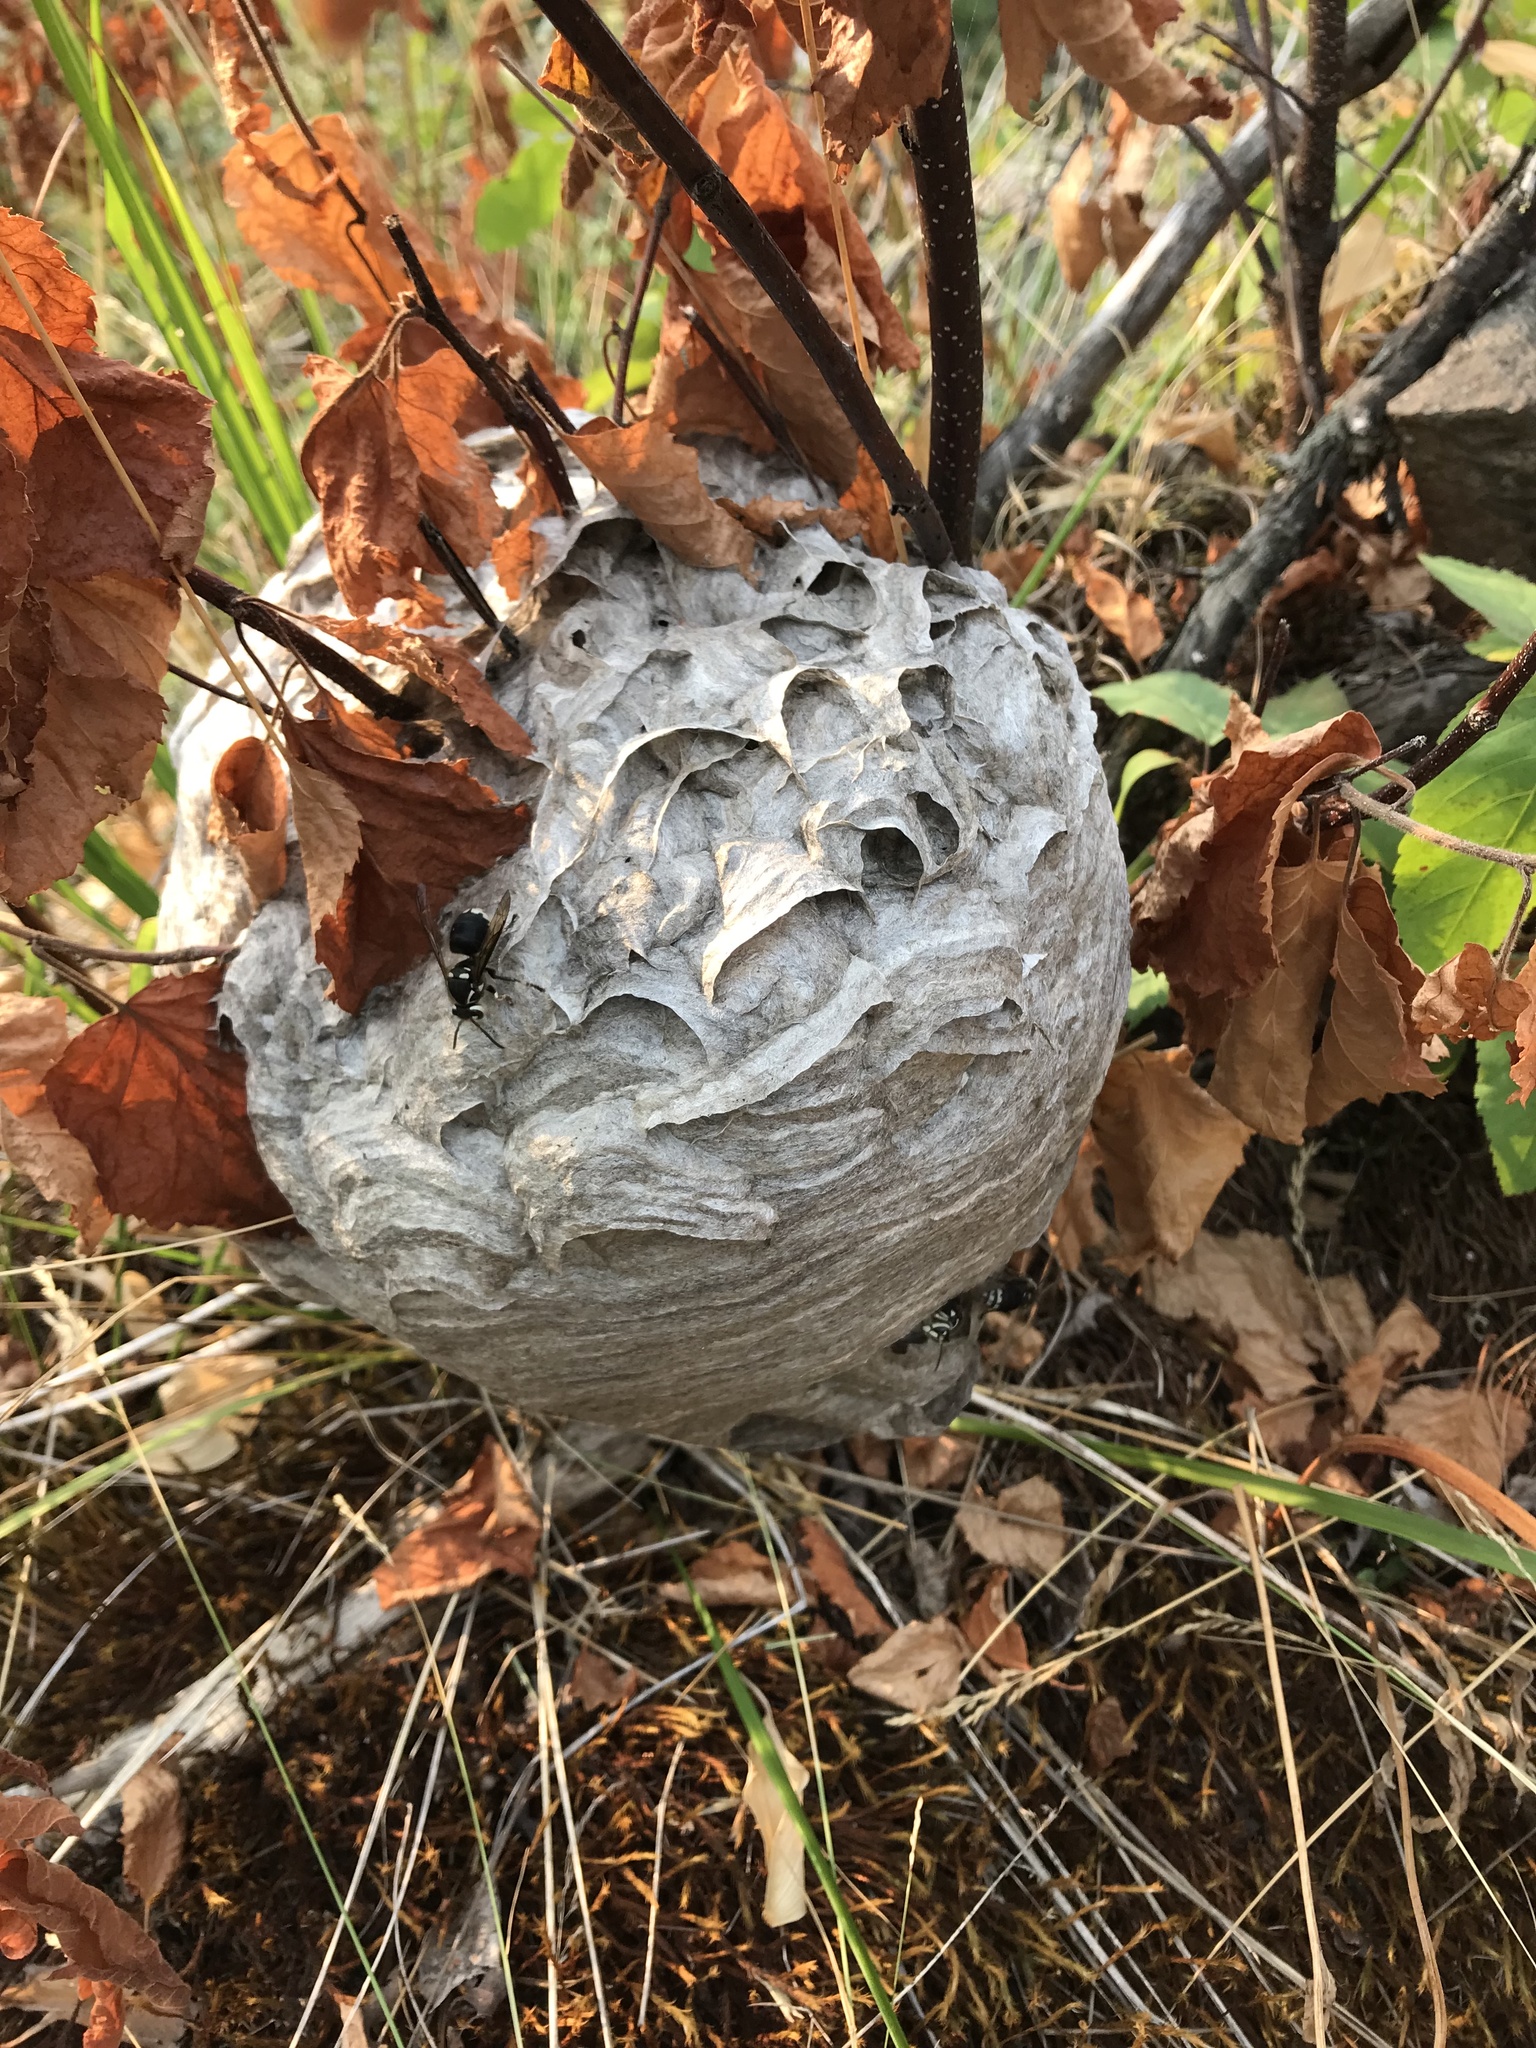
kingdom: Animalia
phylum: Arthropoda
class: Insecta
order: Hymenoptera
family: Vespidae
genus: Dolichovespula
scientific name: Dolichovespula maculata
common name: Bald-faced hornet
